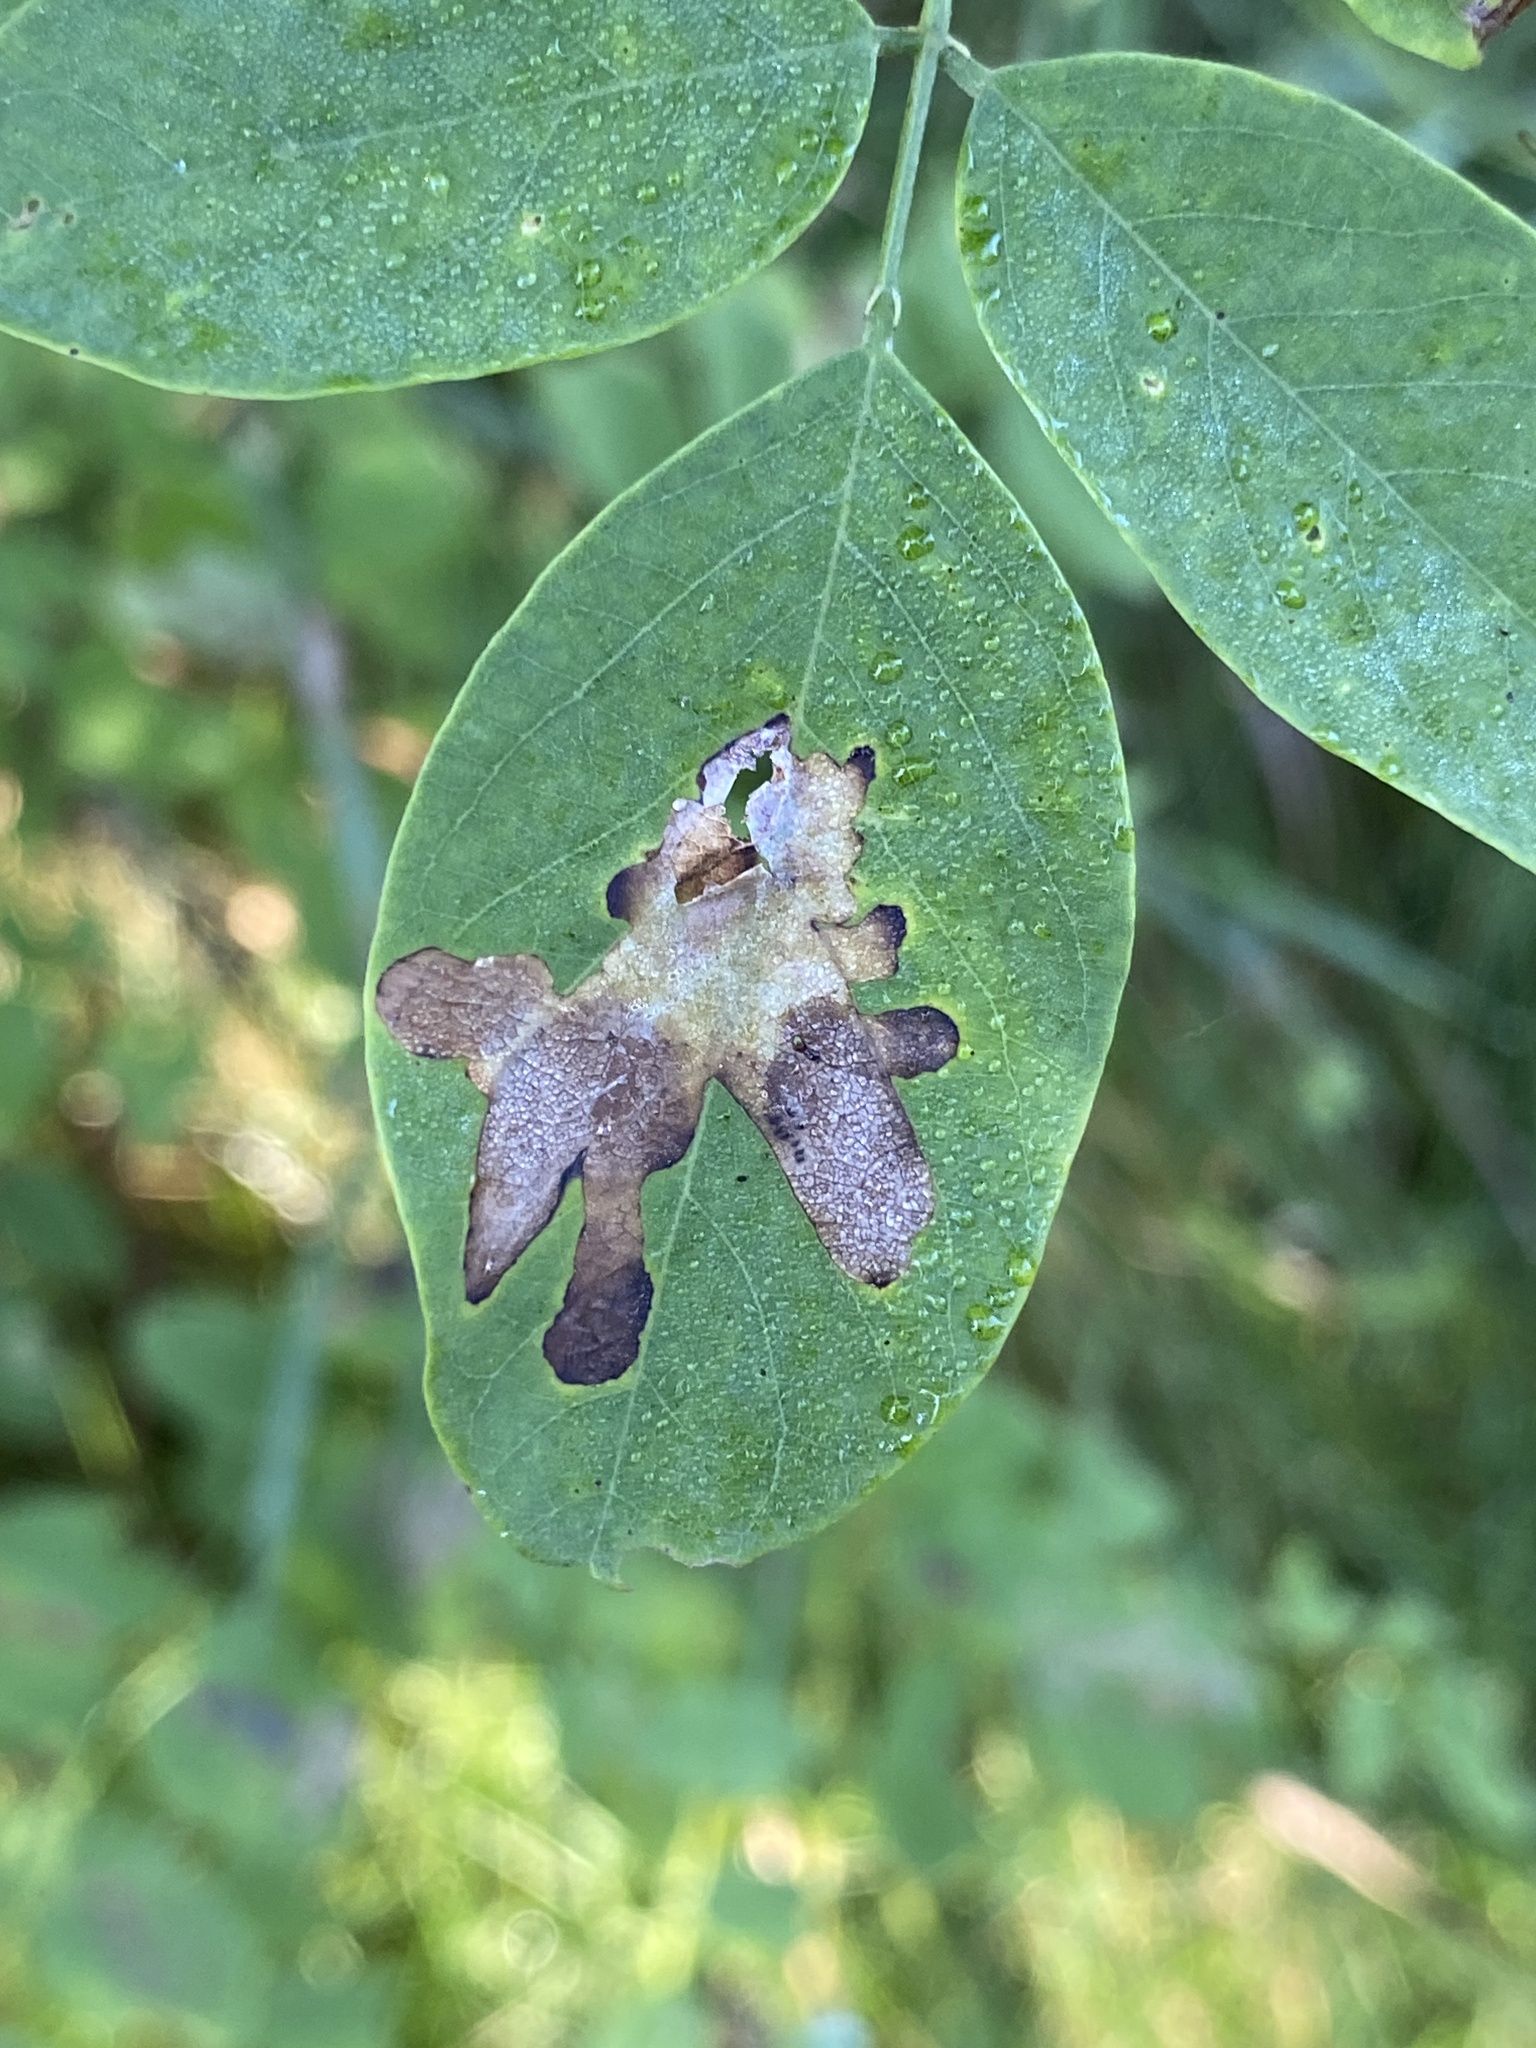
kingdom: Animalia
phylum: Arthropoda
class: Insecta
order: Lepidoptera
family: Gracillariidae
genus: Parectopa
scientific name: Parectopa robiniella
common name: Locust digitate leafminer
